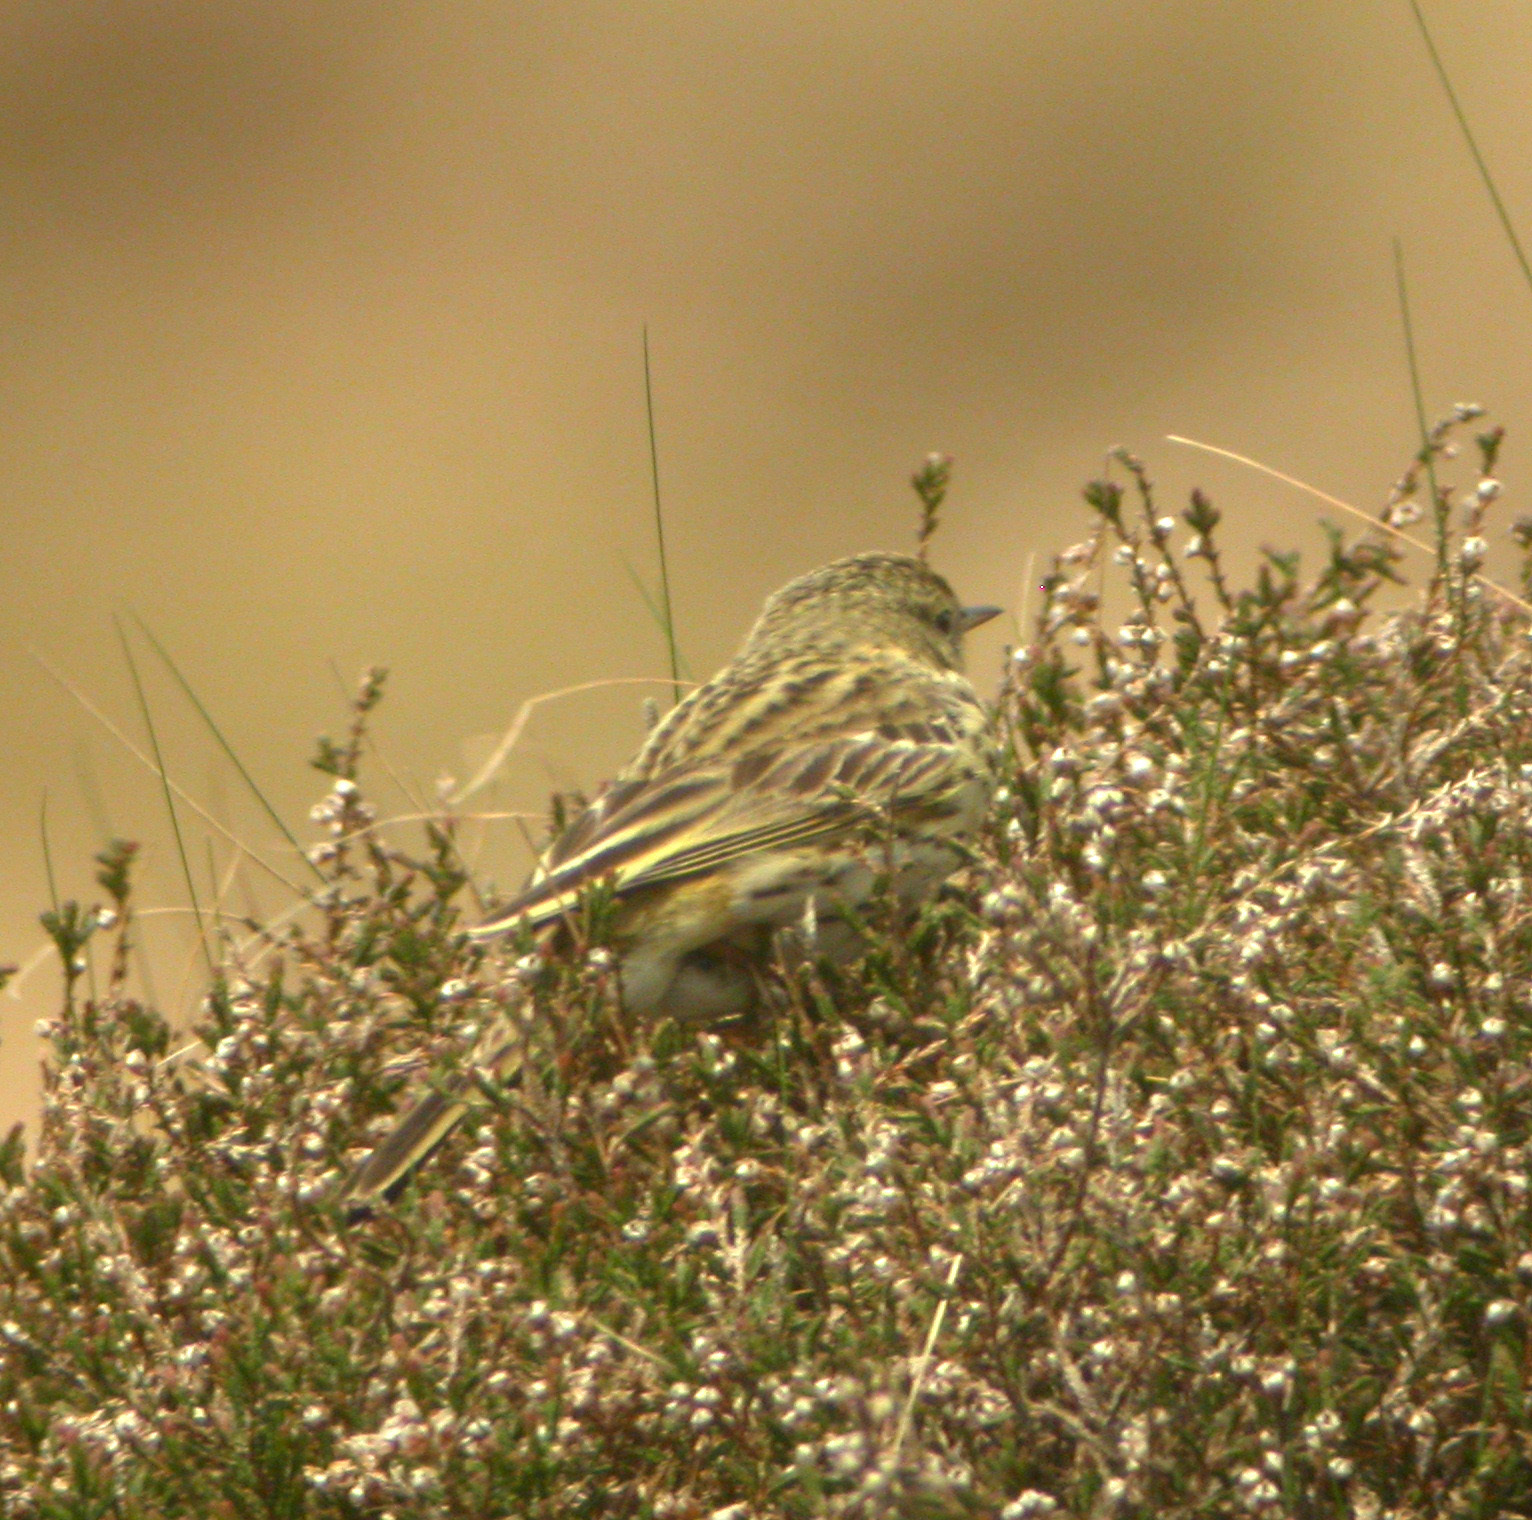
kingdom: Animalia
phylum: Chordata
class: Aves
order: Passeriformes
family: Motacillidae
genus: Anthus
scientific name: Anthus pratensis
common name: Meadow pipit
